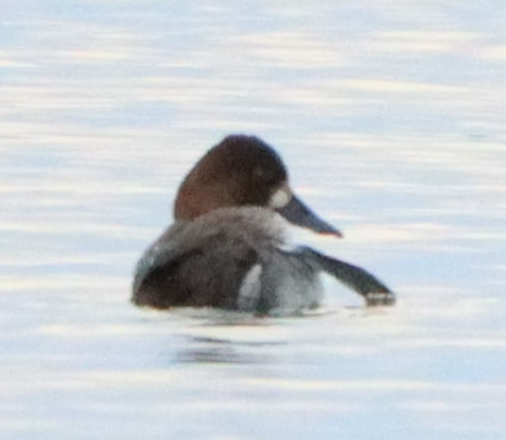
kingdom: Animalia
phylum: Chordata
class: Aves
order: Anseriformes
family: Anatidae
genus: Aythya
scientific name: Aythya affinis
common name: Lesser scaup
